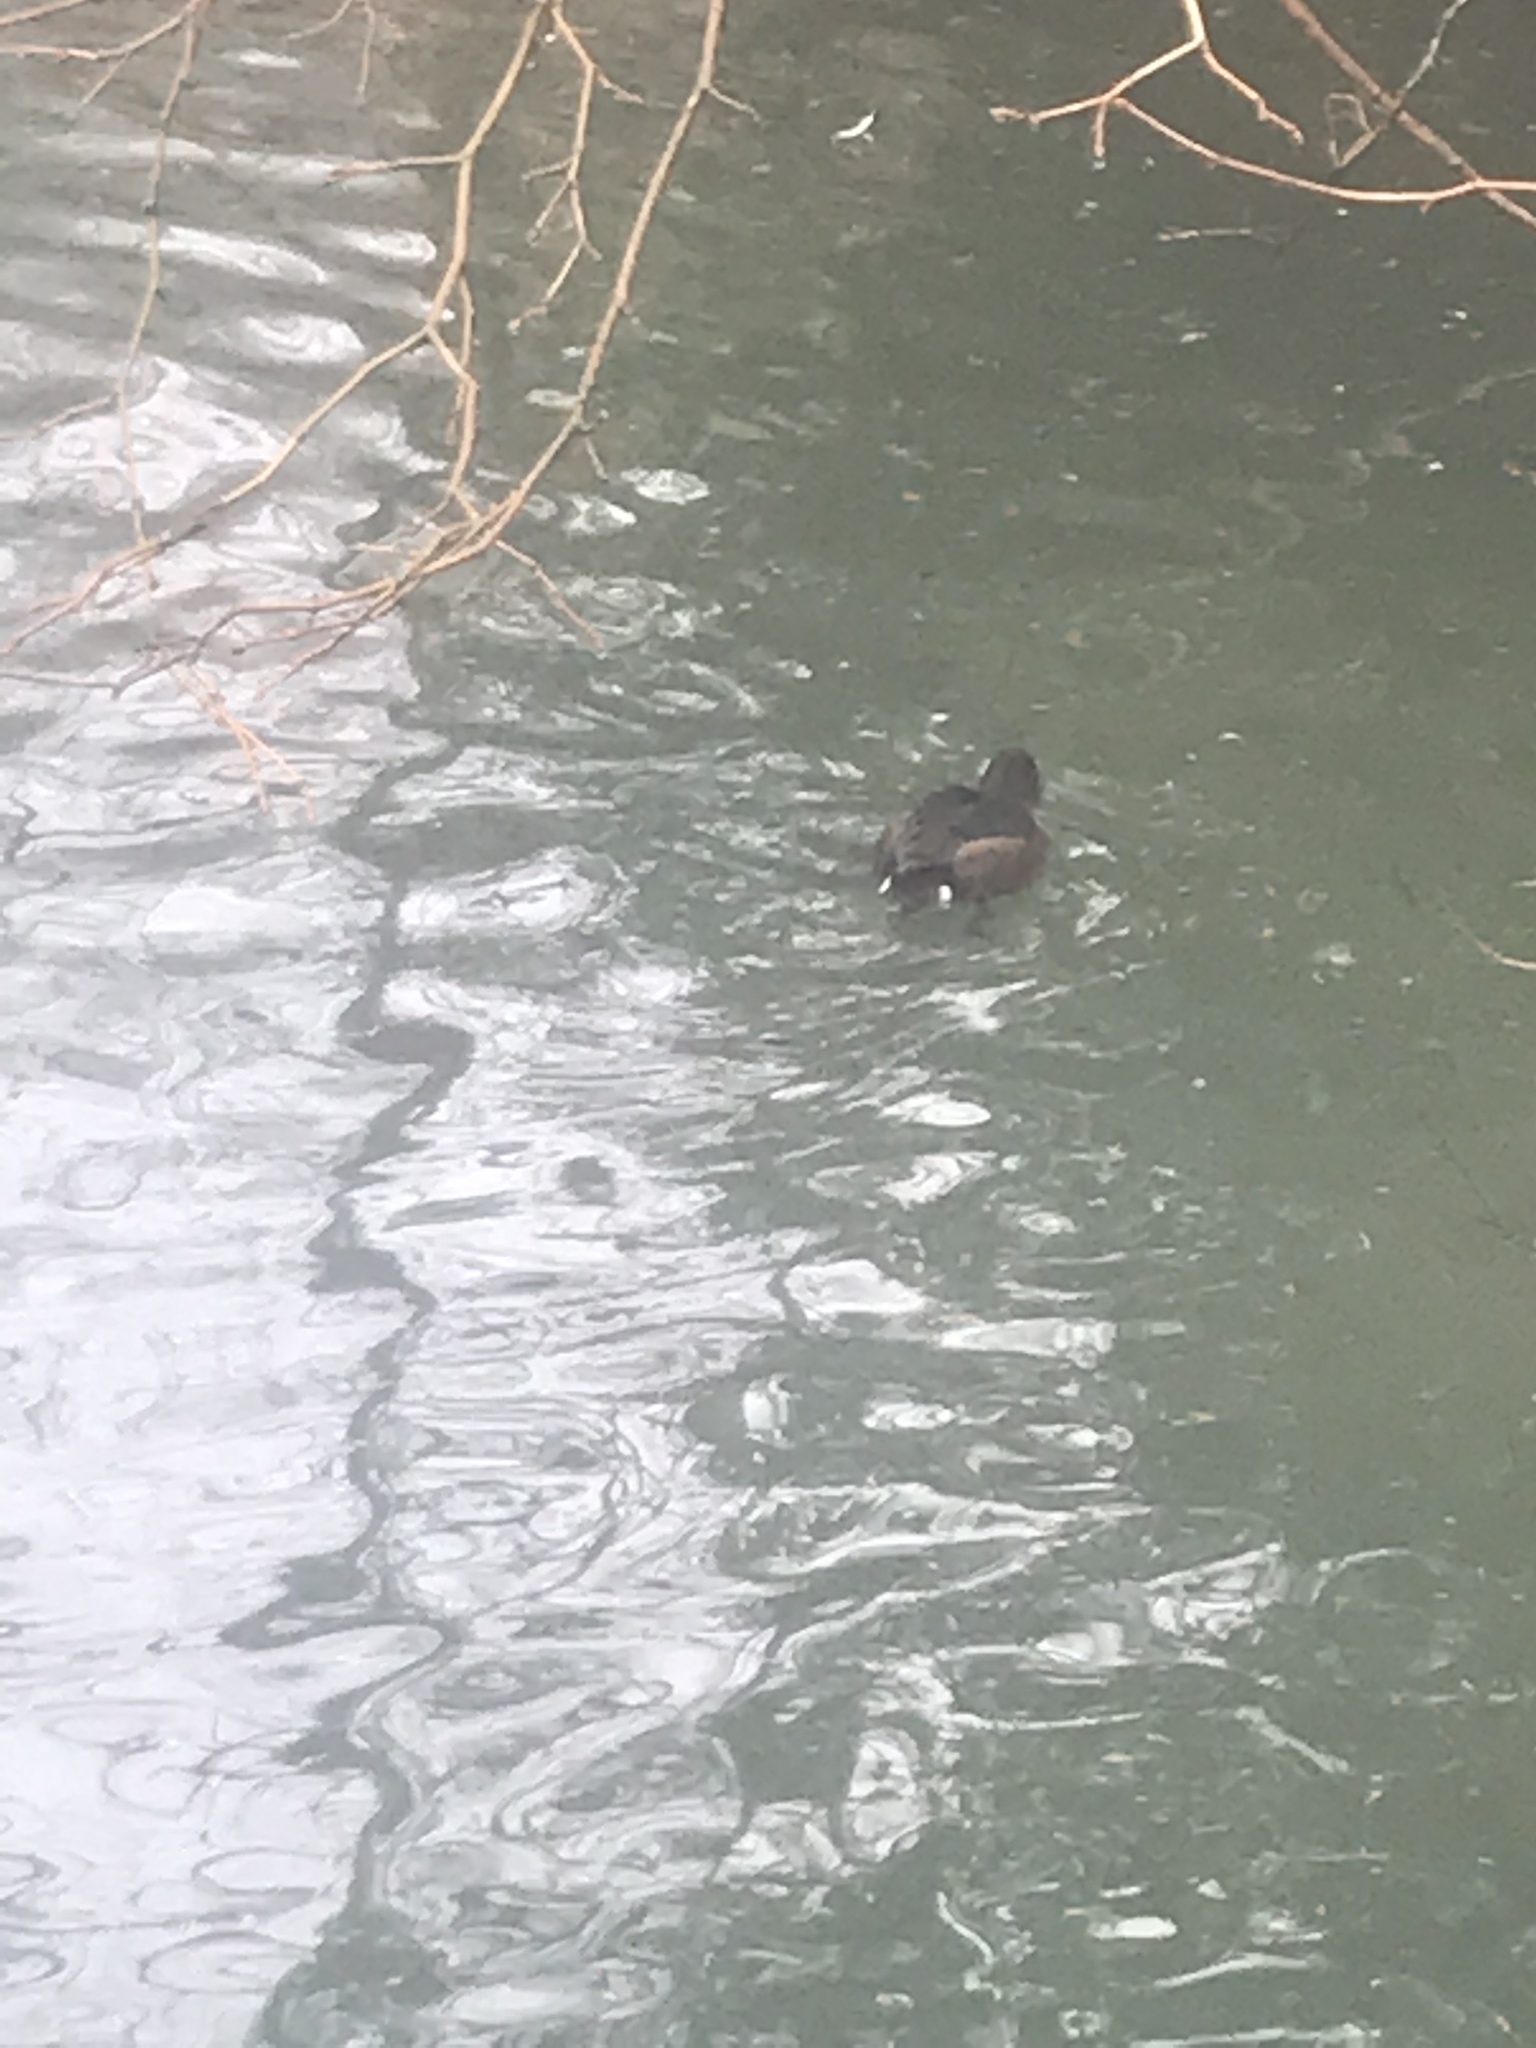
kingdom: Animalia
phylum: Chordata
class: Aves
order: Anseriformes
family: Anatidae
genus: Aythya
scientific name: Aythya fuligula
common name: Tufted duck
